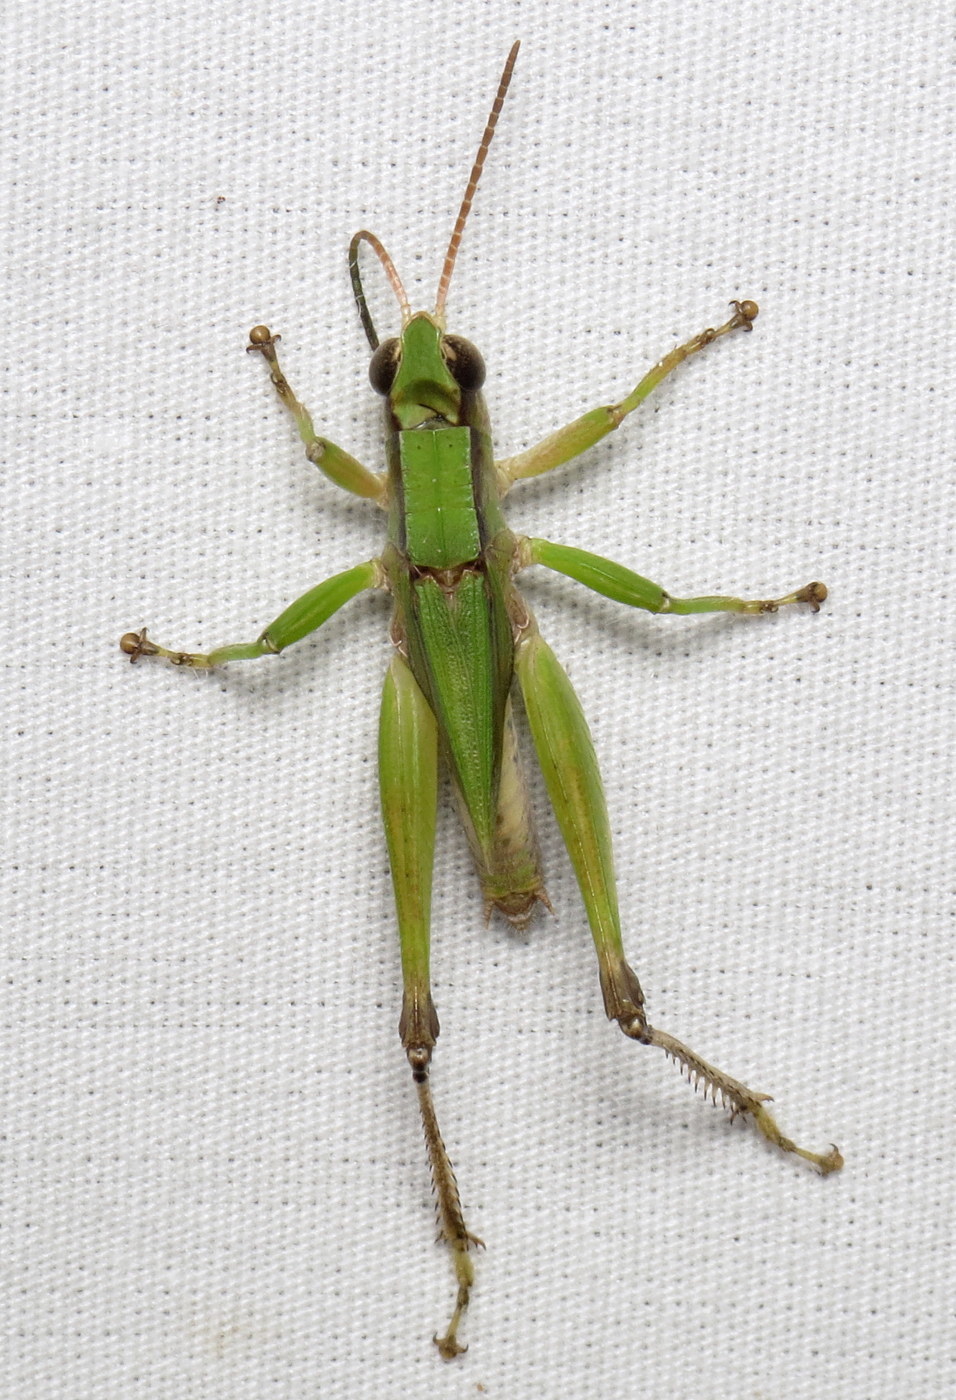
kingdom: Animalia
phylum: Arthropoda
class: Insecta
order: Orthoptera
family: Acrididae
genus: Dichromorpha
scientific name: Dichromorpha viridis
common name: Short-winged green grasshopper
